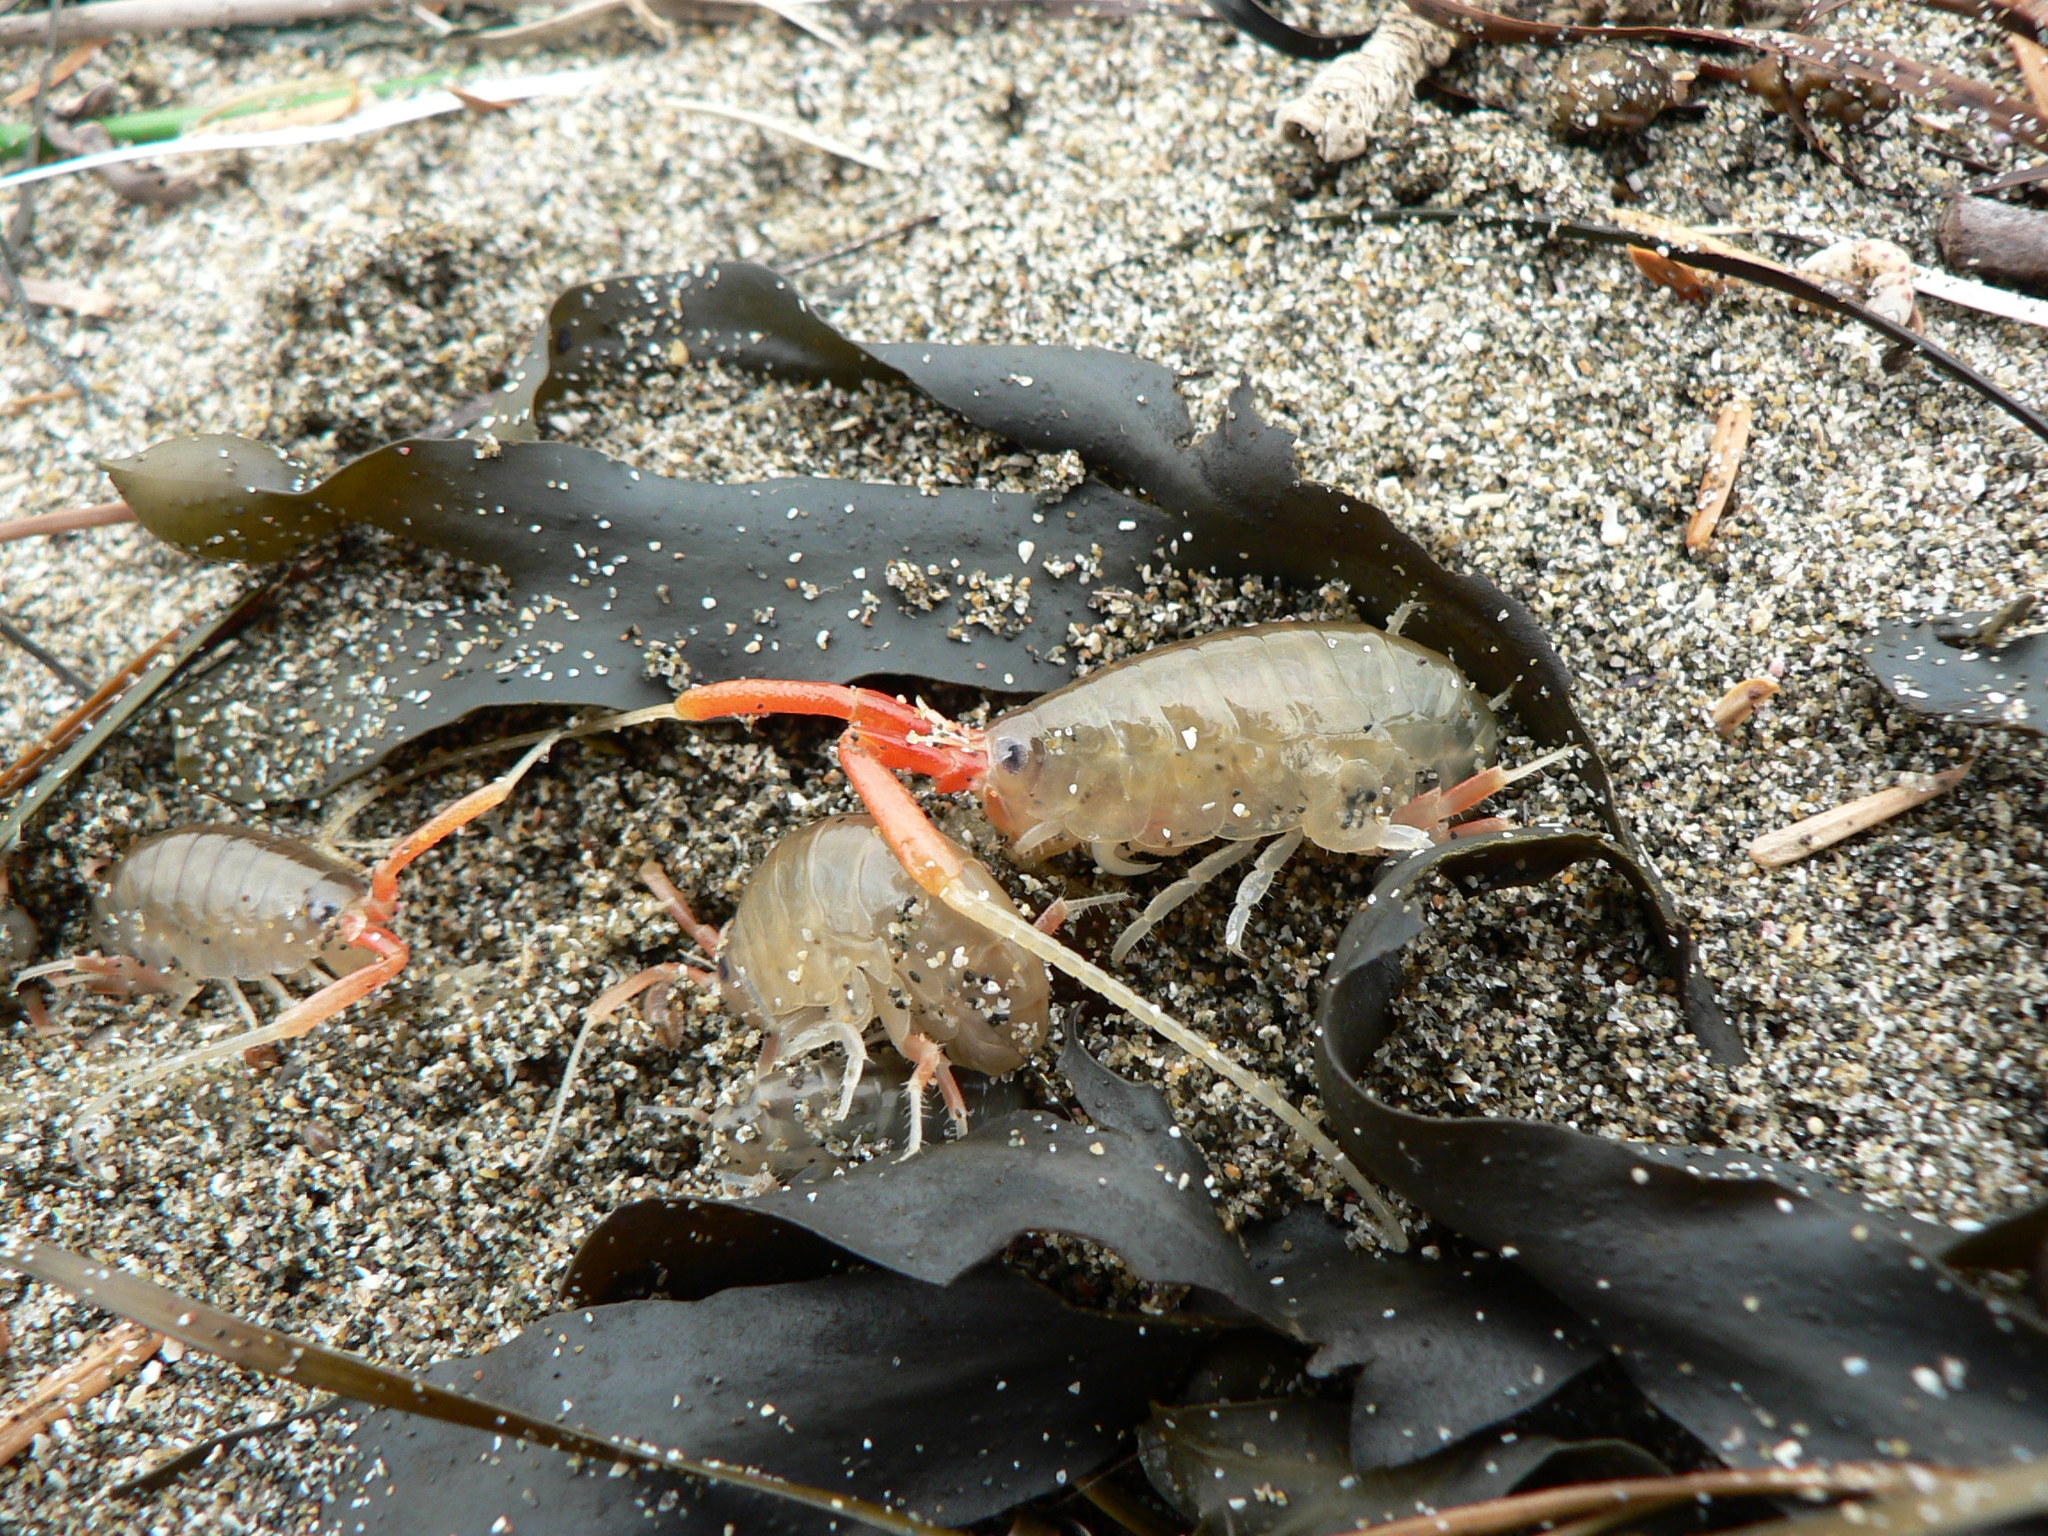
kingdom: Animalia
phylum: Arthropoda
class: Malacostraca
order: Amphipoda
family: Talitridae
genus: Megalorchestia
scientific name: Megalorchestia californiana
